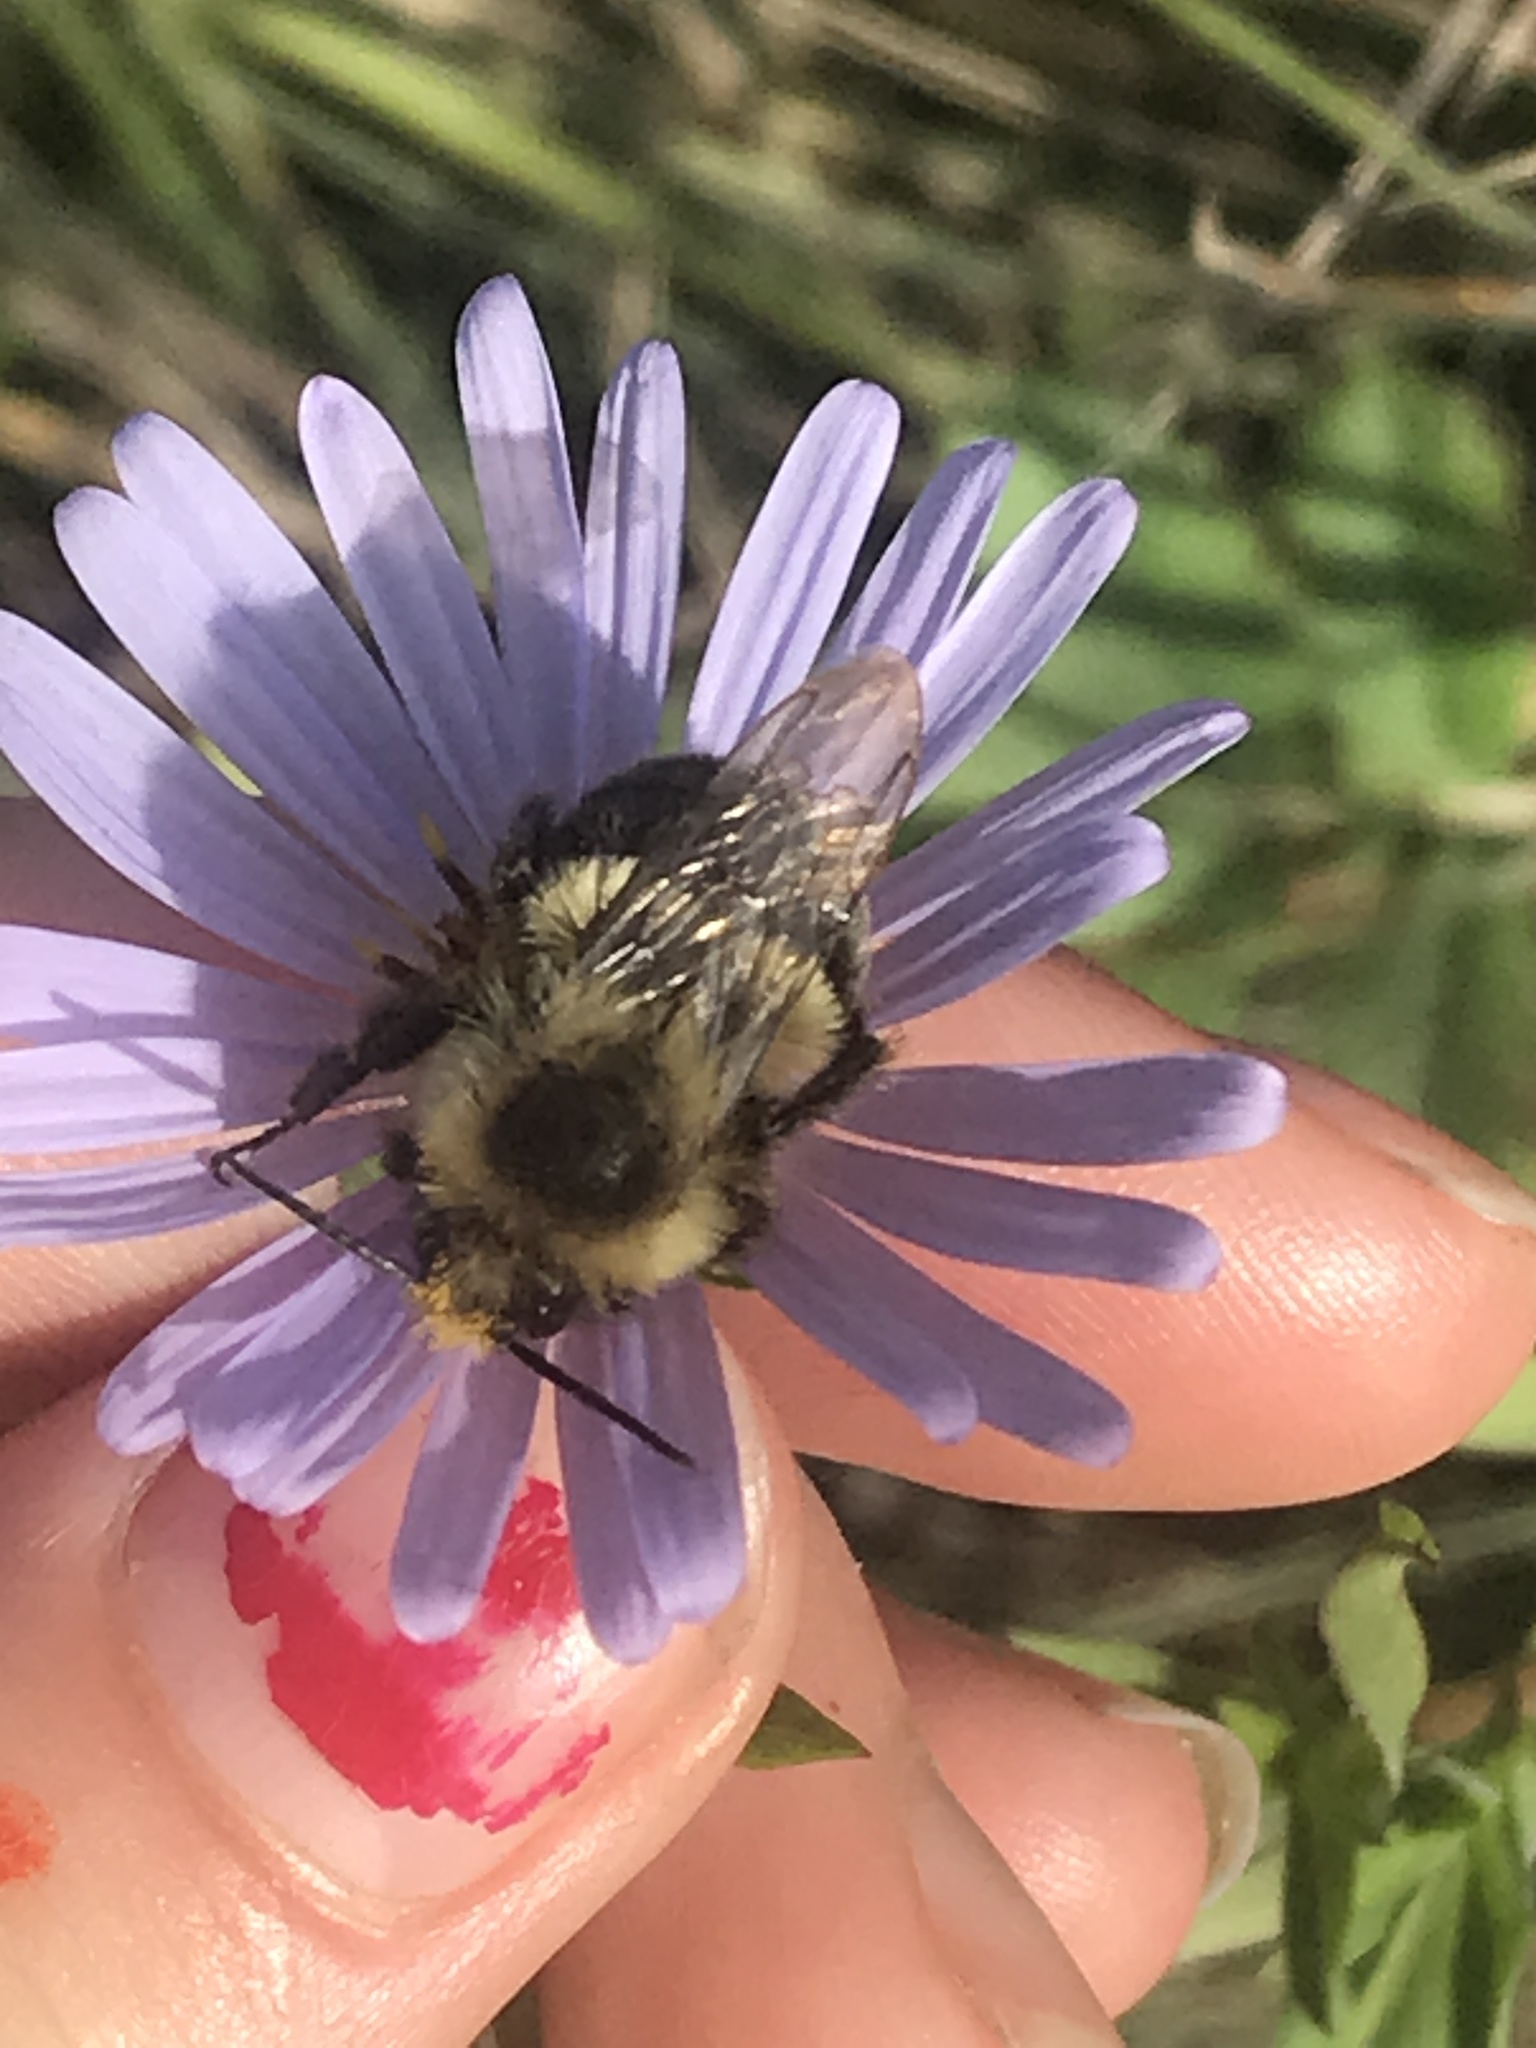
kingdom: Animalia
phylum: Arthropoda
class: Insecta
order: Hymenoptera
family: Apidae
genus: Bombus
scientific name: Bombus impatiens
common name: Common eastern bumble bee
